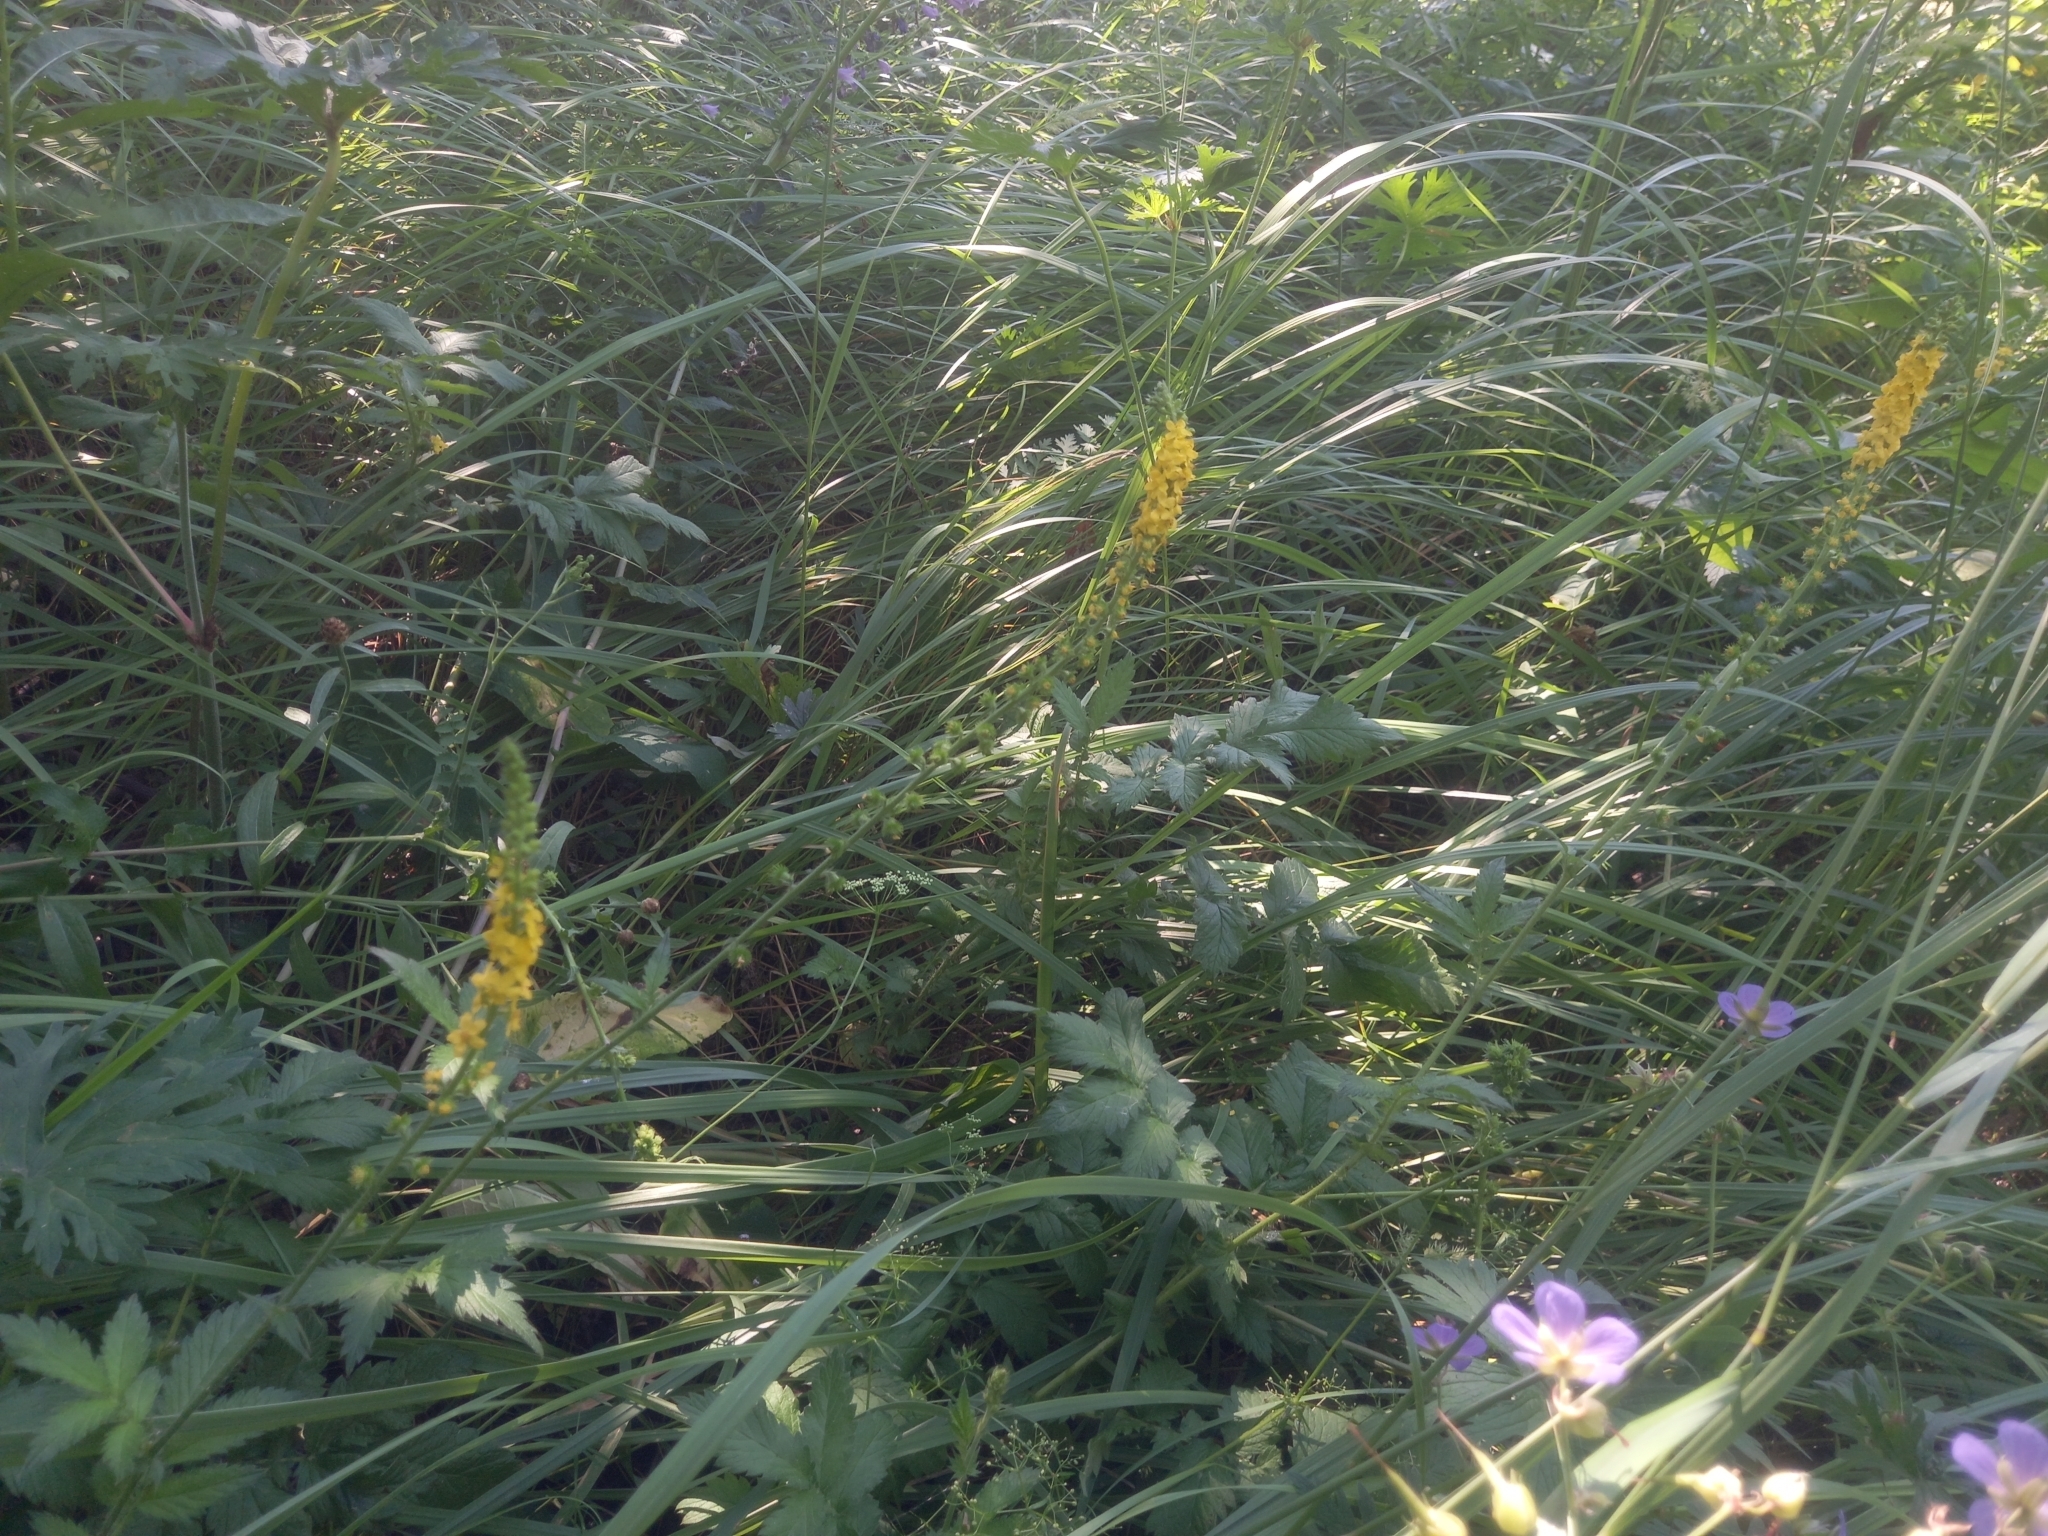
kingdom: Plantae
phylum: Tracheophyta
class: Magnoliopsida
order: Rosales
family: Rosaceae
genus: Agrimonia
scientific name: Agrimonia eupatoria
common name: Agrimony
